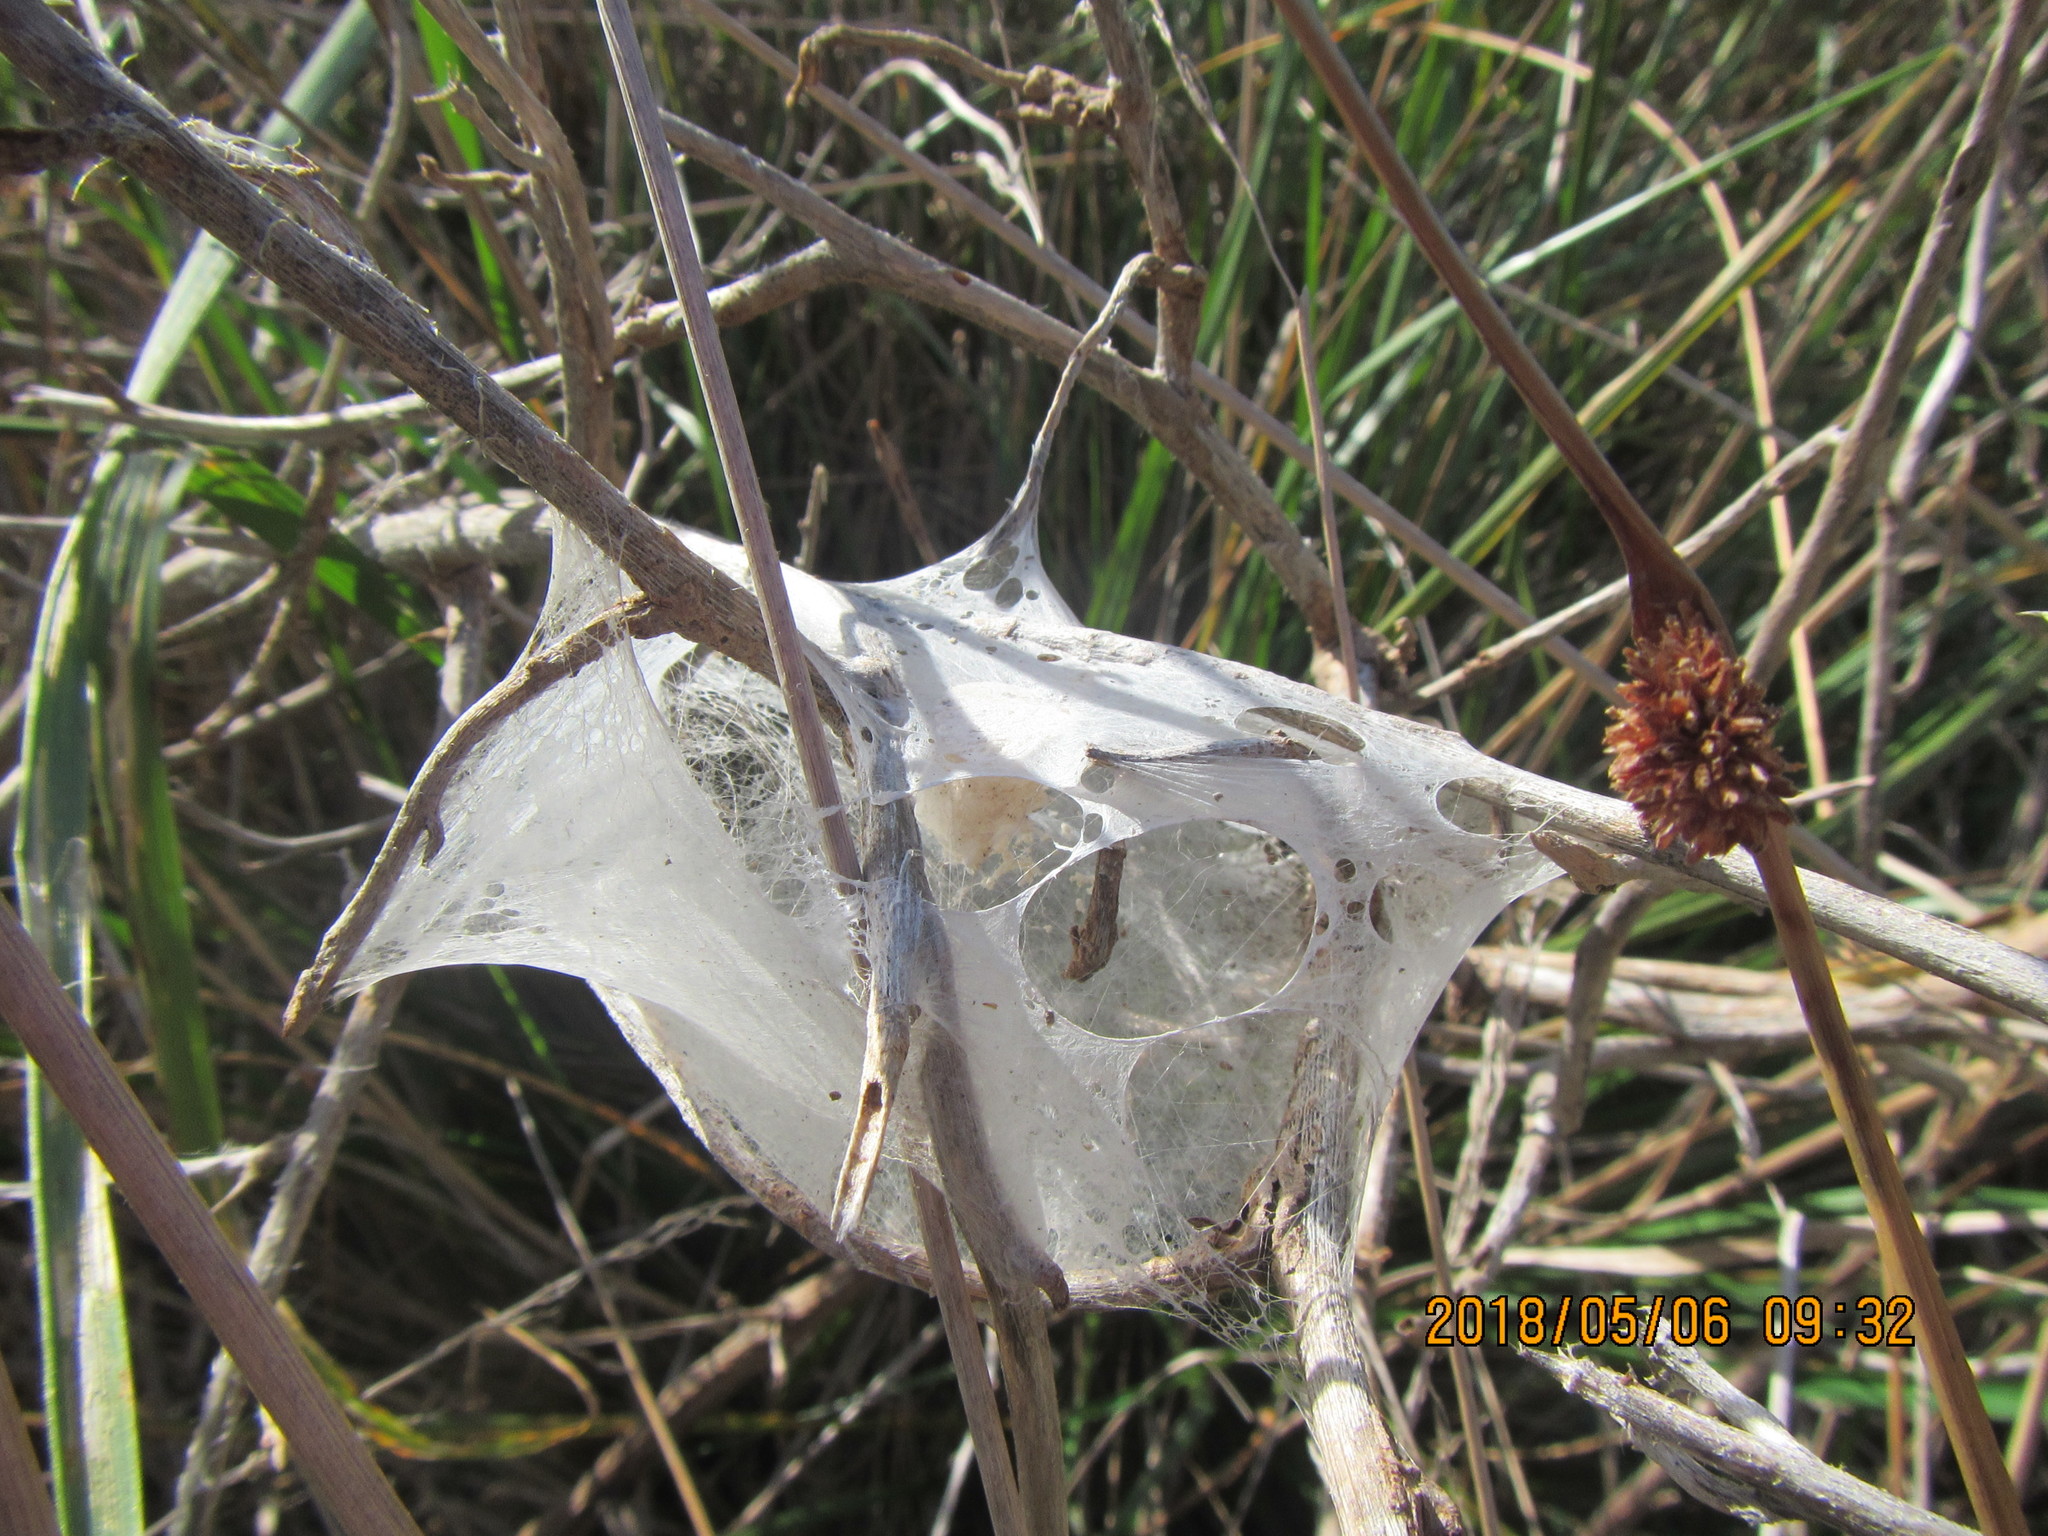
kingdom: Animalia
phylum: Arthropoda
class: Arachnida
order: Araneae
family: Pisauridae
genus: Dolomedes
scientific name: Dolomedes minor
